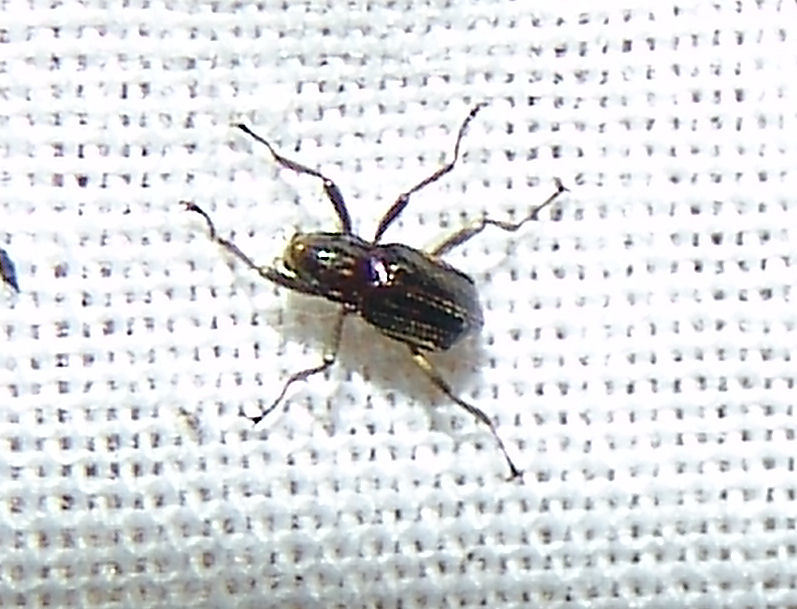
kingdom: Animalia
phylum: Arthropoda
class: Insecta
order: Coleoptera
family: Elmidae
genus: Macronychus
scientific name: Macronychus glabratus
